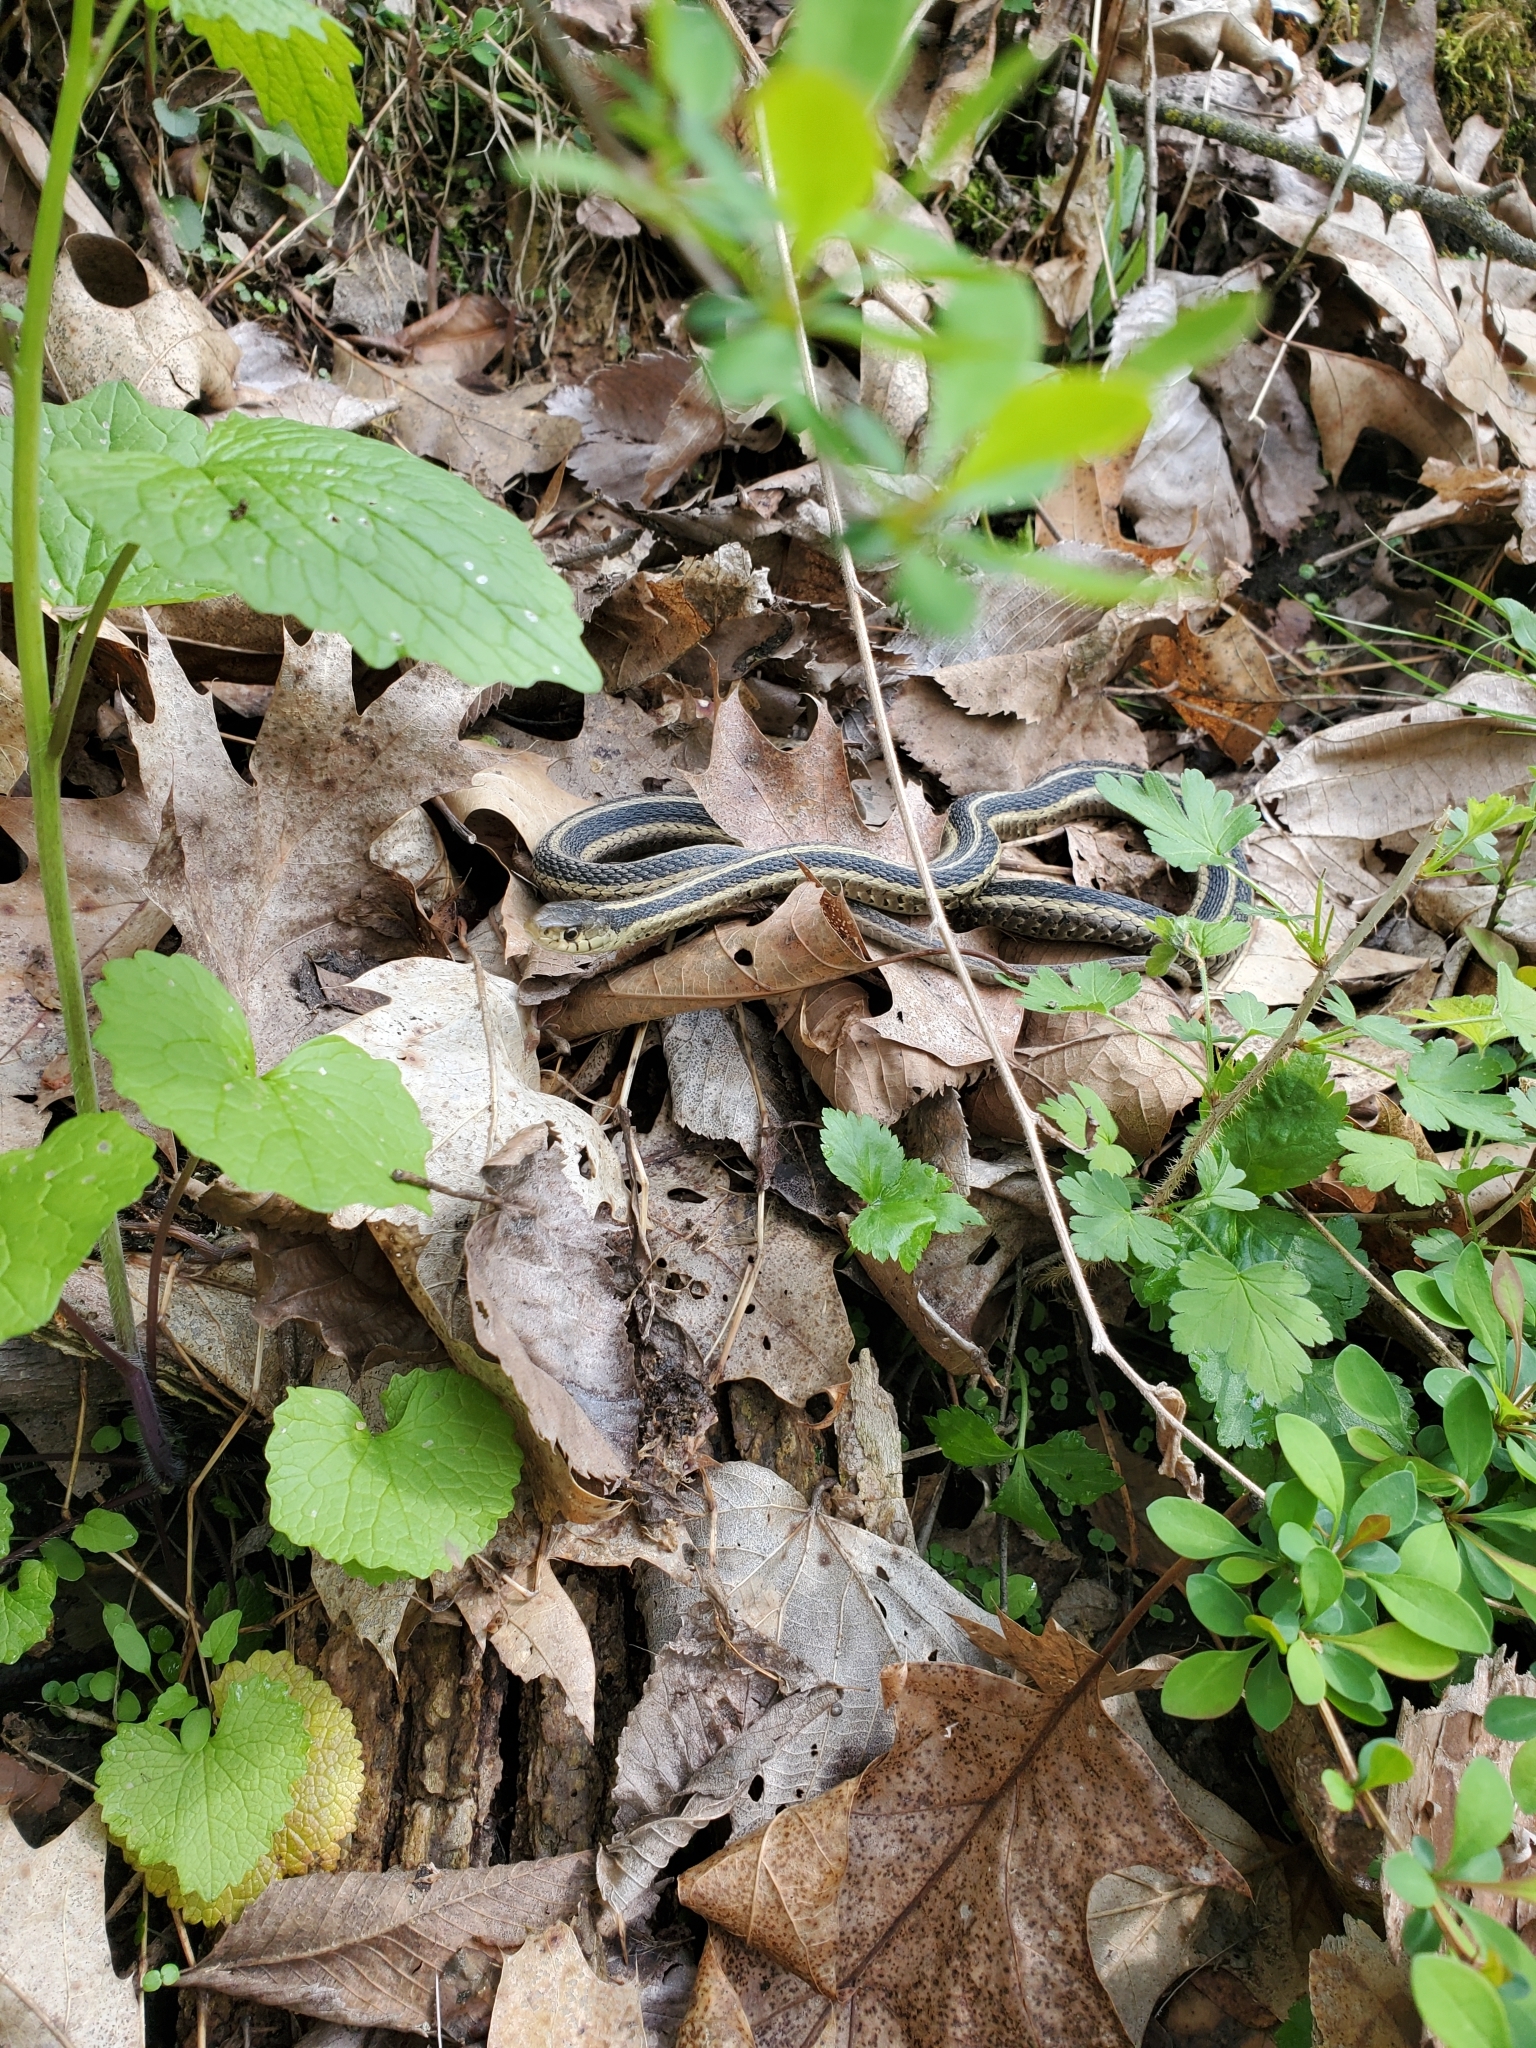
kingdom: Animalia
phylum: Chordata
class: Squamata
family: Colubridae
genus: Thamnophis
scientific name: Thamnophis sirtalis
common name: Common garter snake
